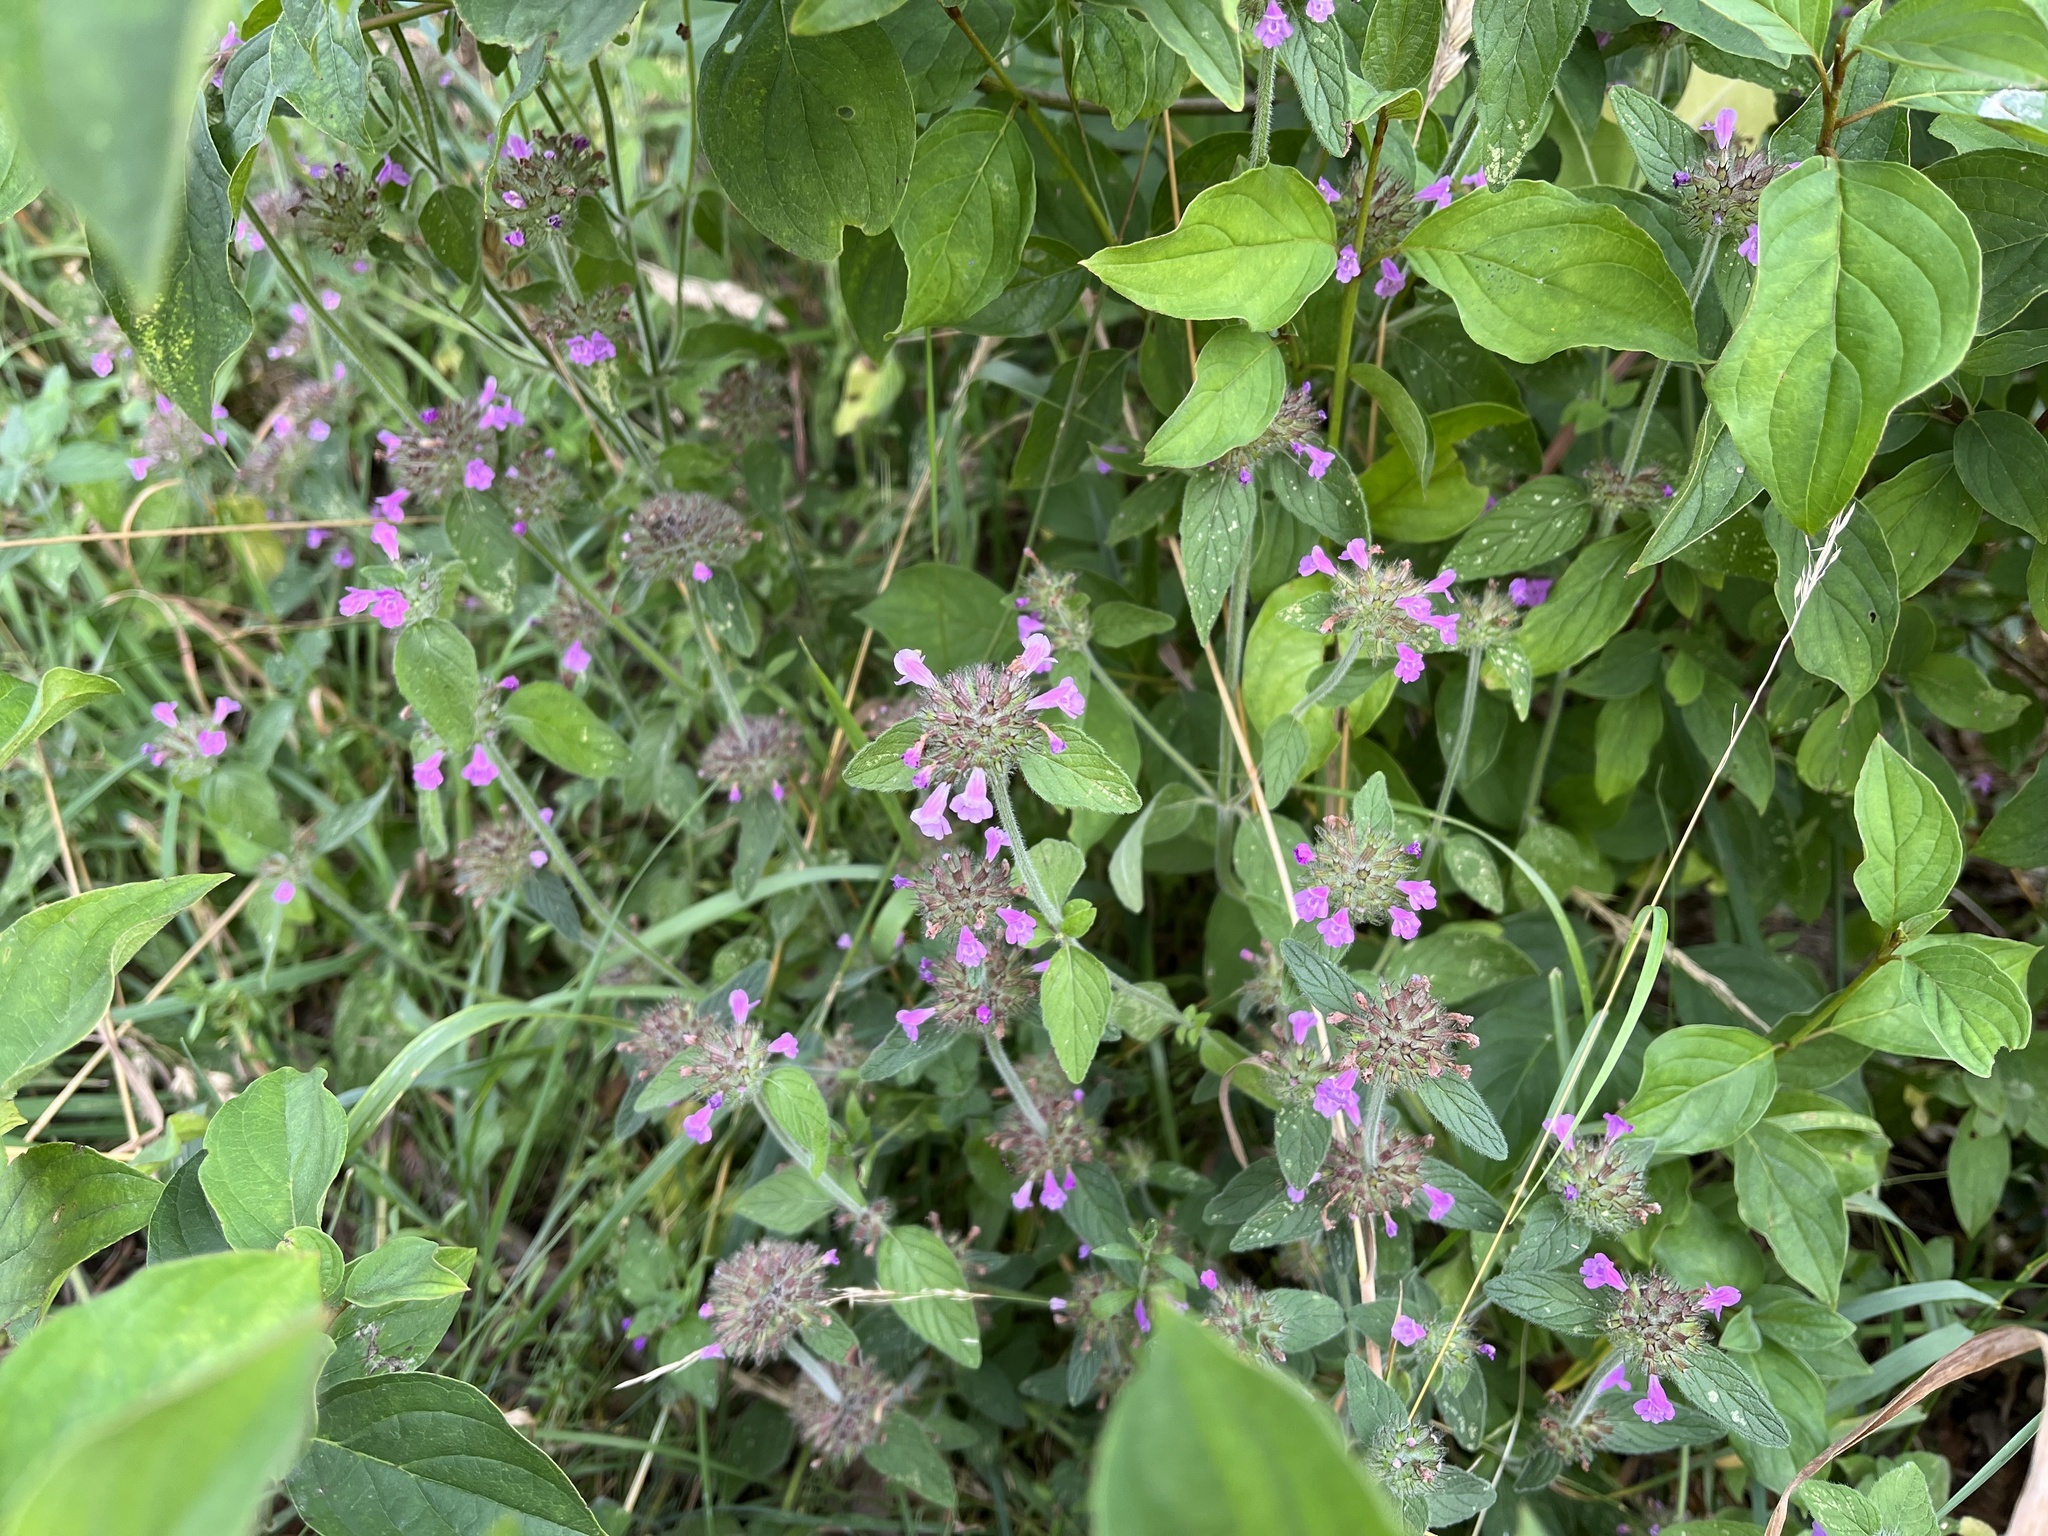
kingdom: Plantae
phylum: Tracheophyta
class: Magnoliopsida
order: Lamiales
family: Lamiaceae
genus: Clinopodium
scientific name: Clinopodium vulgare
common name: Wild basil
